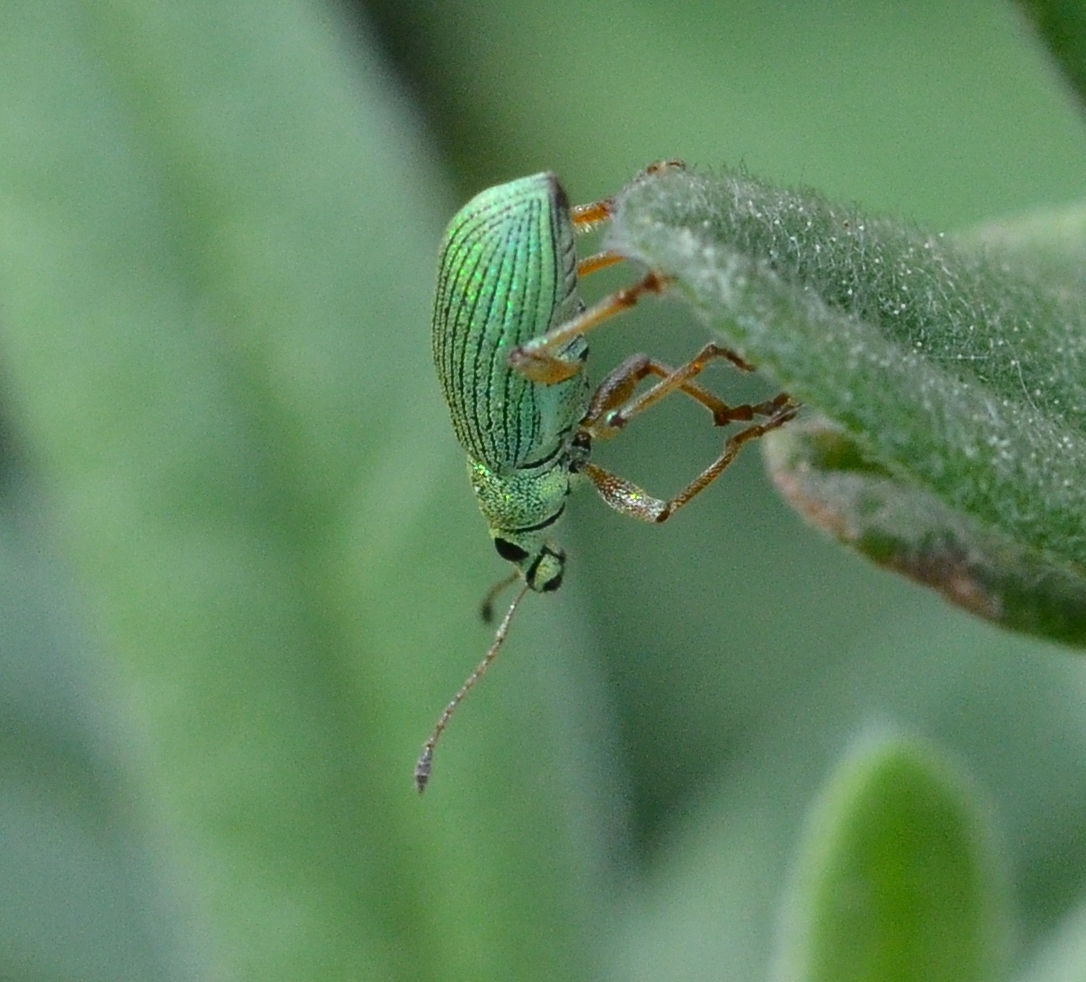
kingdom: Animalia
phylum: Arthropoda
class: Insecta
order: Coleoptera
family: Curculionidae
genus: Polydrusus
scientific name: Polydrusus formosus
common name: Weevil
